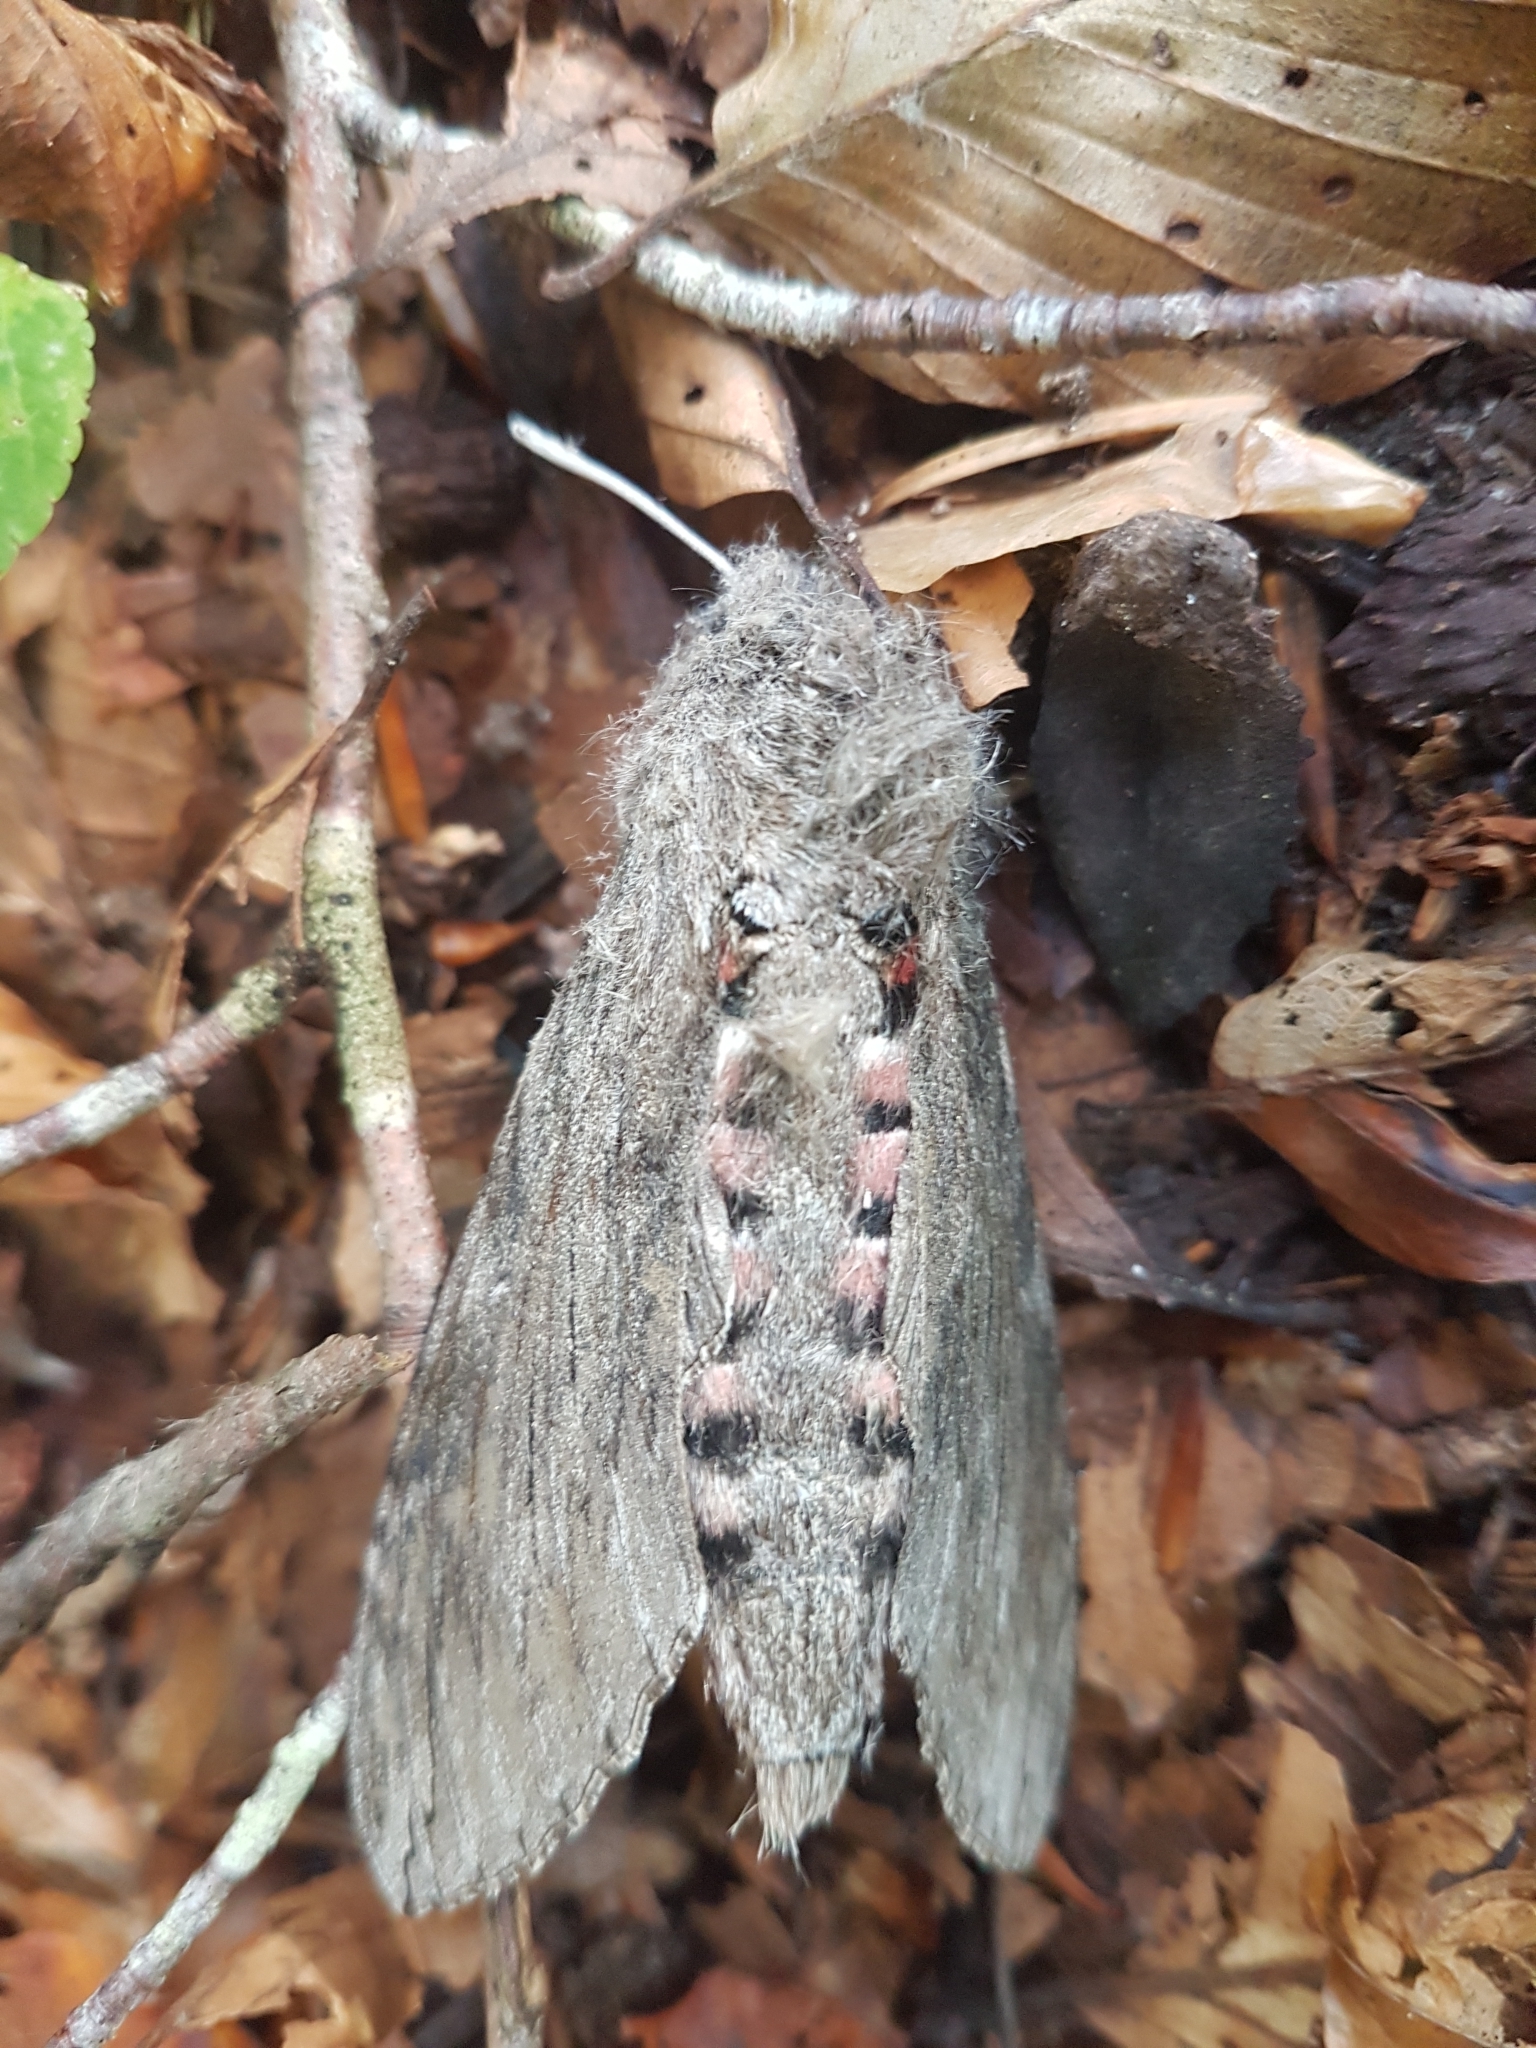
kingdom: Animalia
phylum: Arthropoda
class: Insecta
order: Lepidoptera
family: Sphingidae
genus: Agrius
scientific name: Agrius convolvuli
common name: Convolvulus hawkmoth
